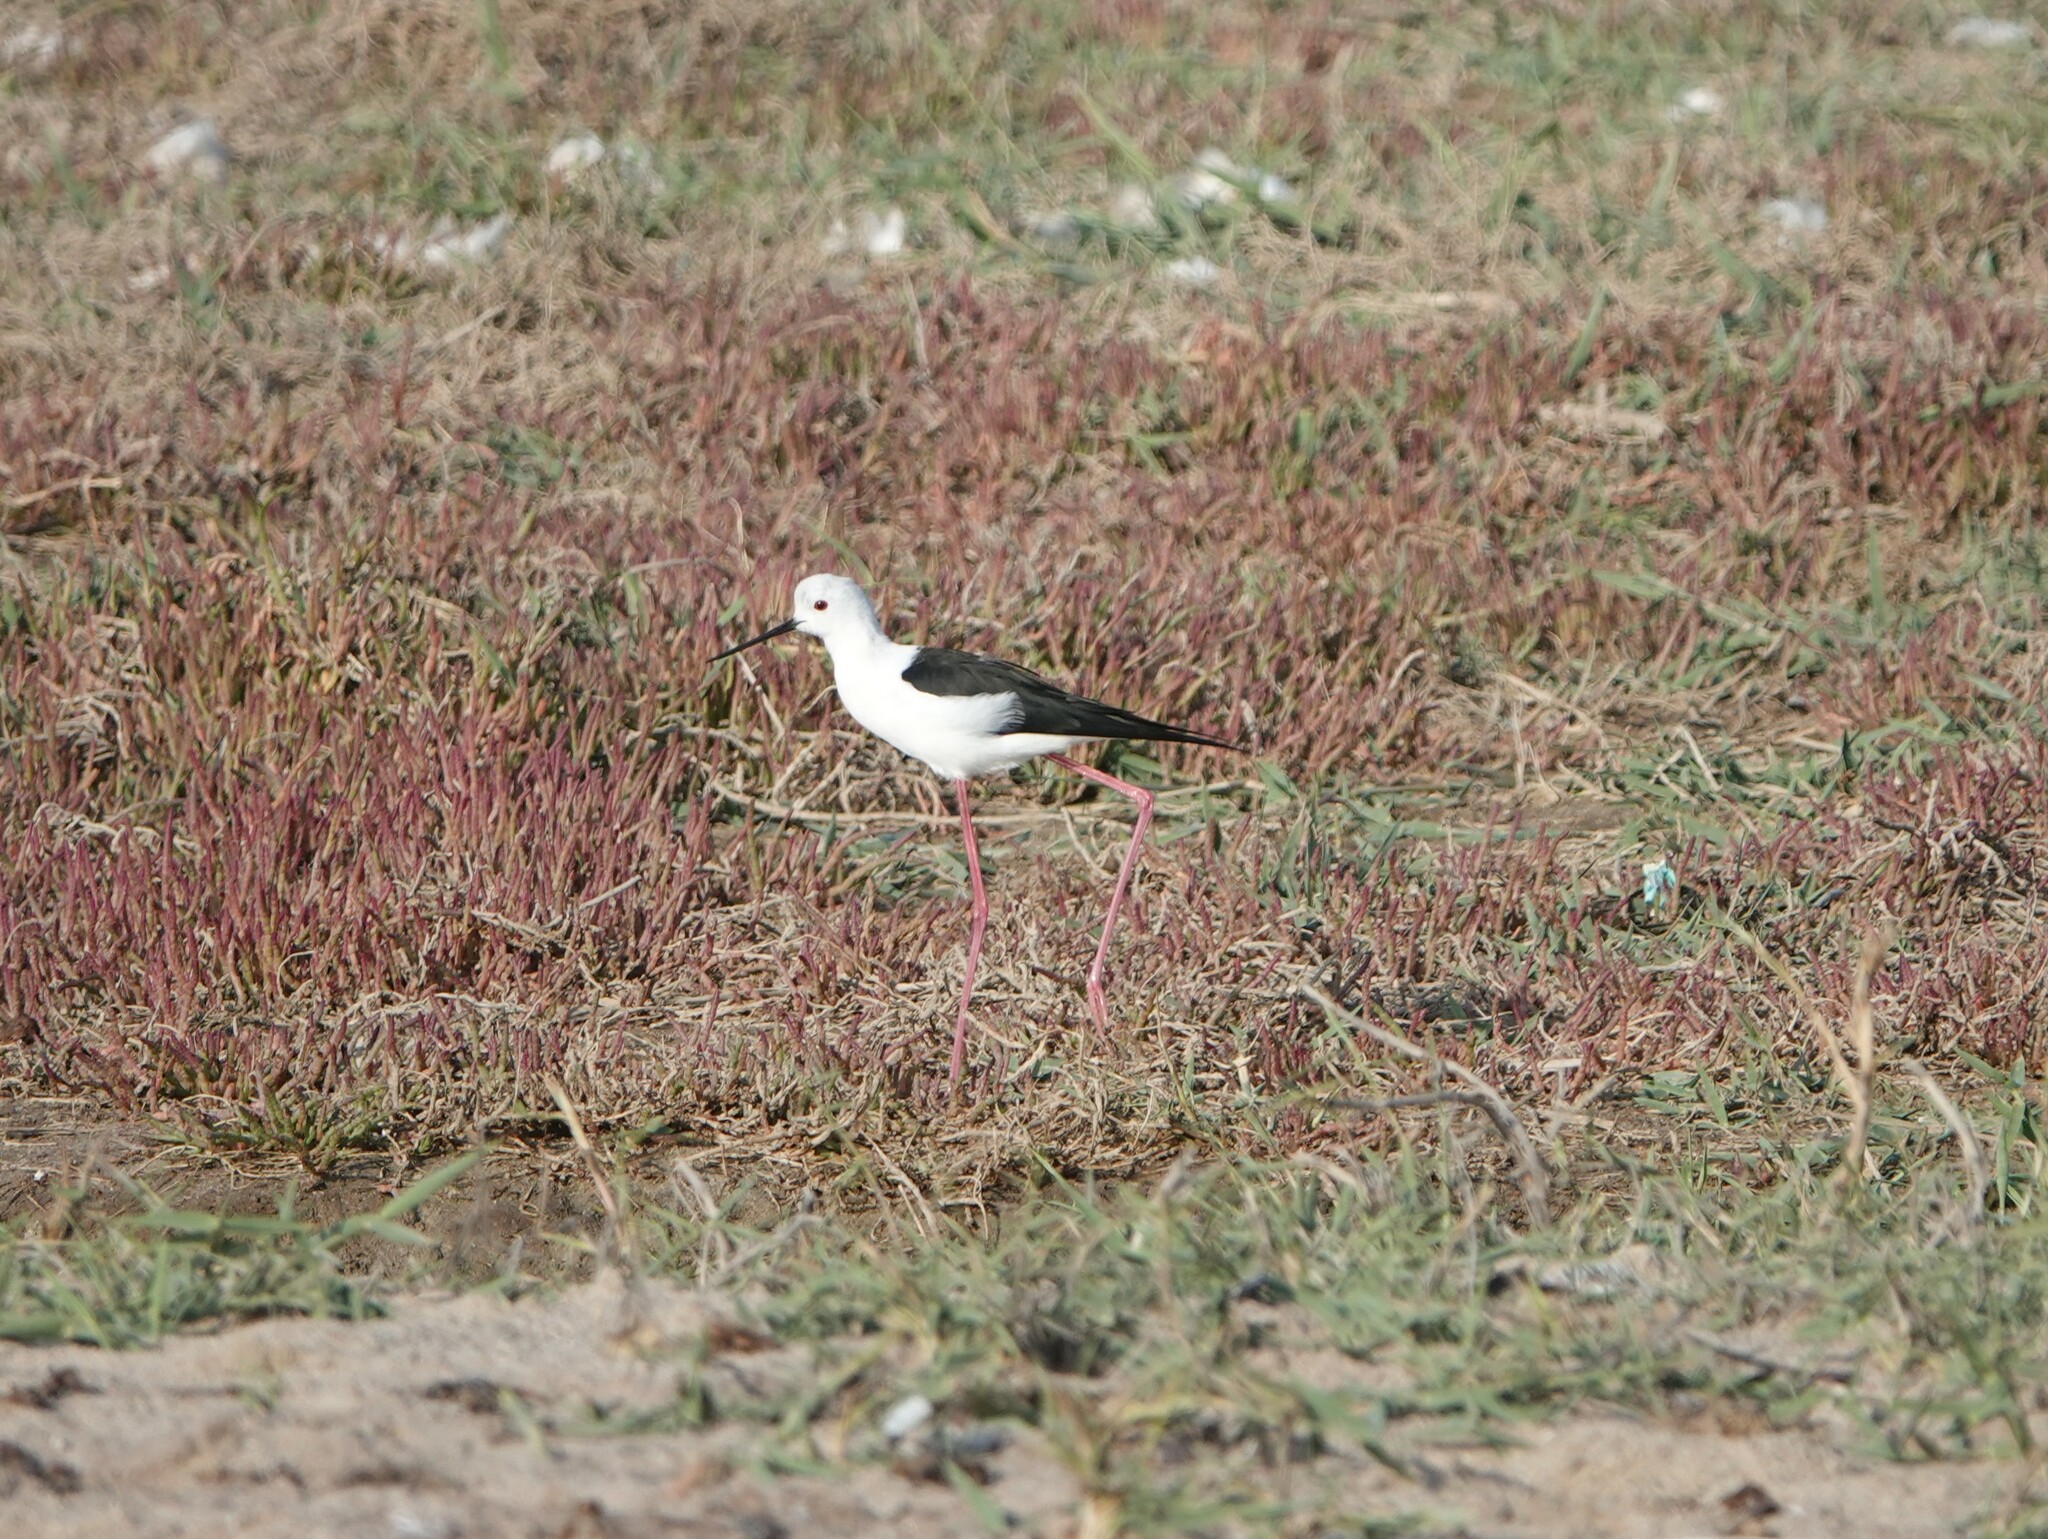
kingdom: Animalia
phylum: Chordata
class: Aves
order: Charadriiformes
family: Recurvirostridae
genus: Himantopus
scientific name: Himantopus himantopus
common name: Black-winged stilt
